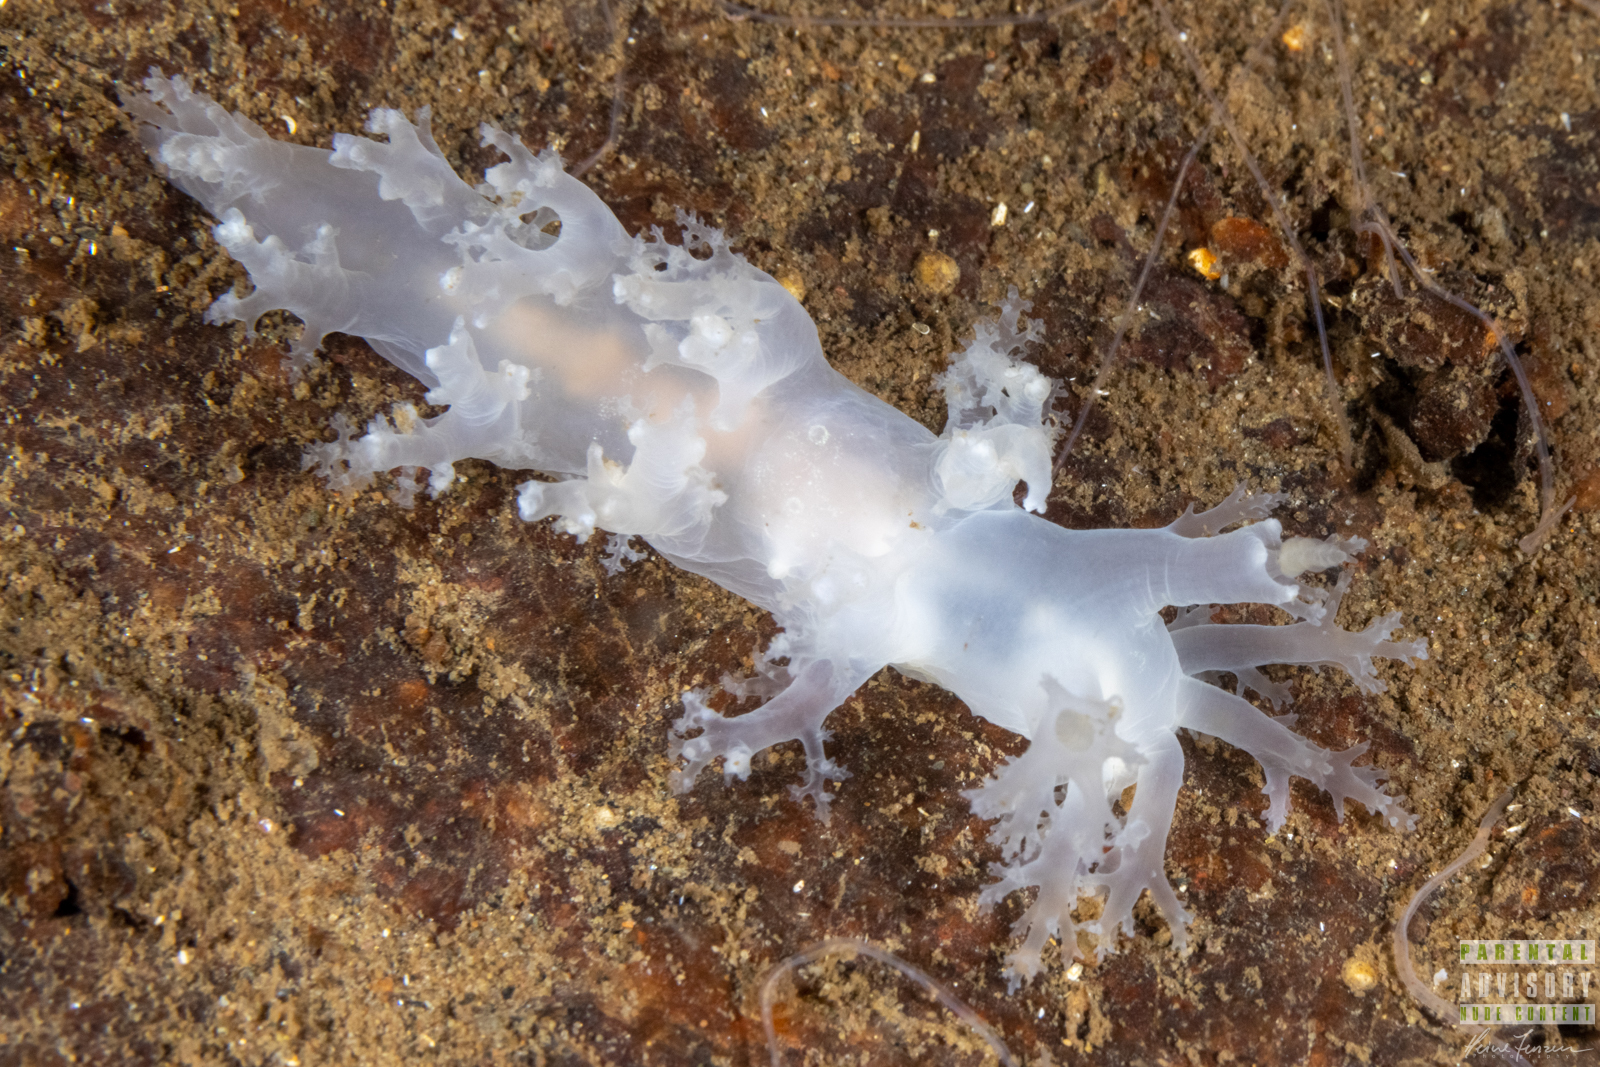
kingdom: Animalia
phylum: Mollusca
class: Gastropoda
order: Nudibranchia
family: Dendronotidae
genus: Dendronotus
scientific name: Dendronotus lacteus
